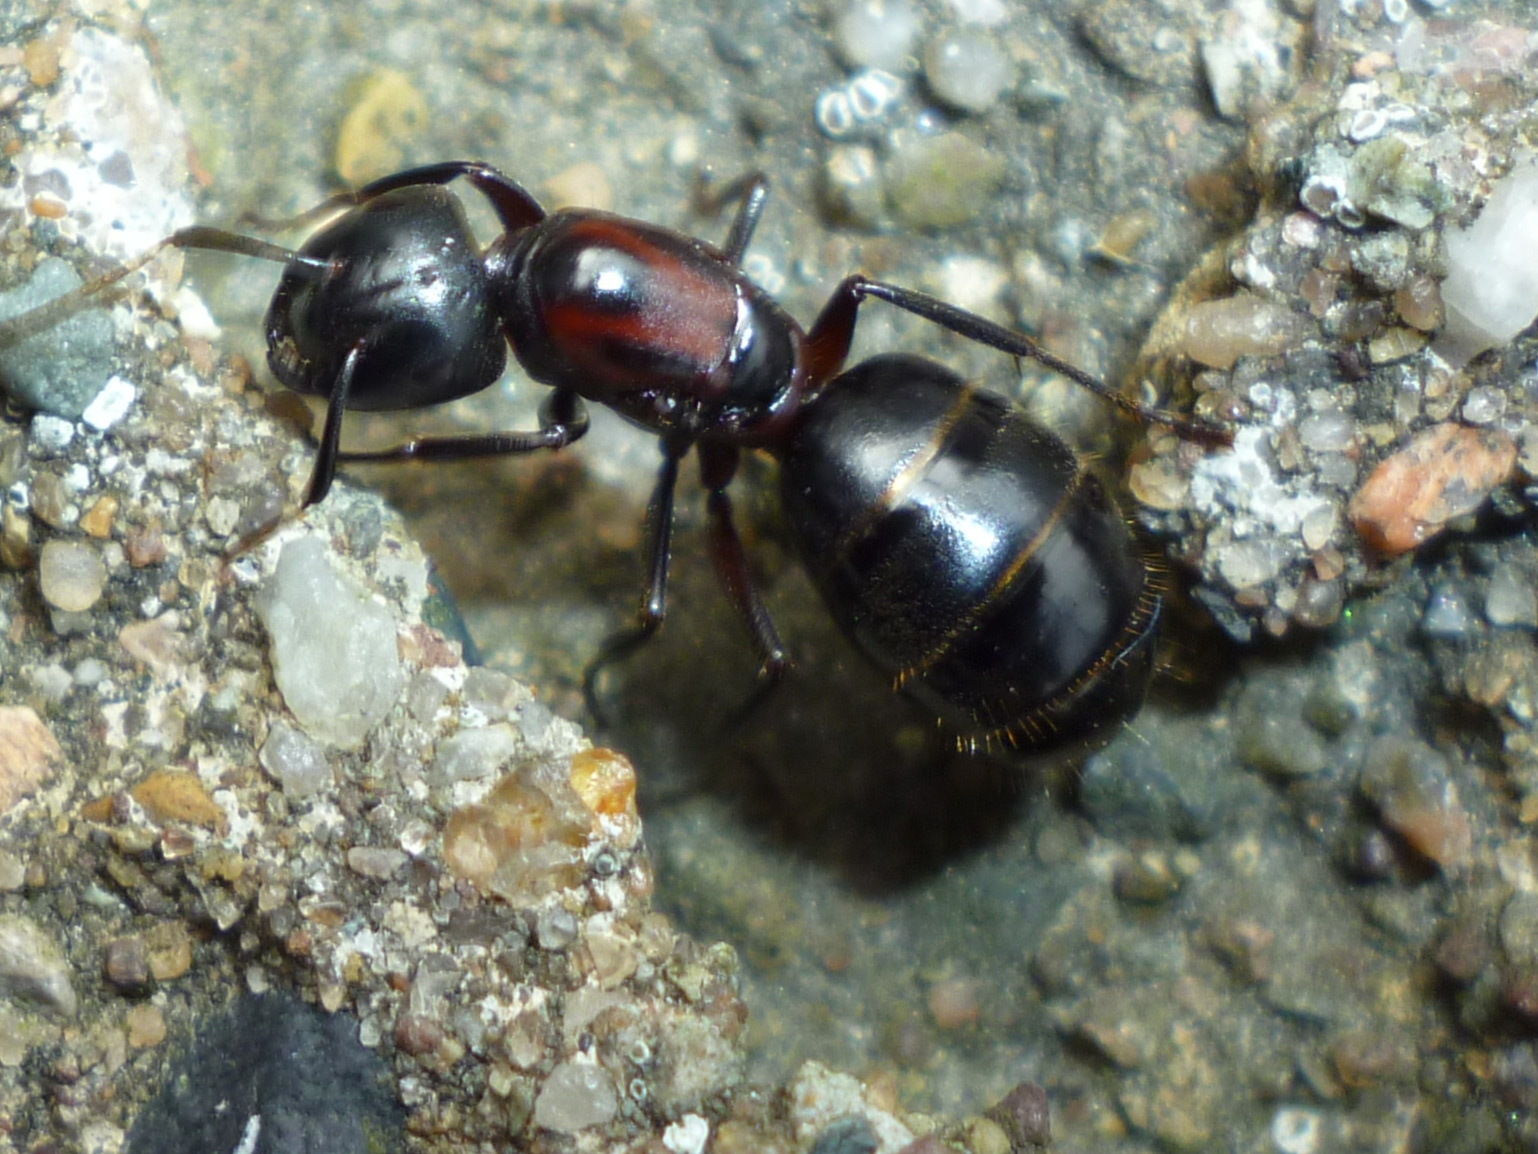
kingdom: Animalia
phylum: Arthropoda
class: Insecta
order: Hymenoptera
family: Formicidae
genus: Camponotus
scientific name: Camponotus novaeboracensis
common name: New york carpenter ant
